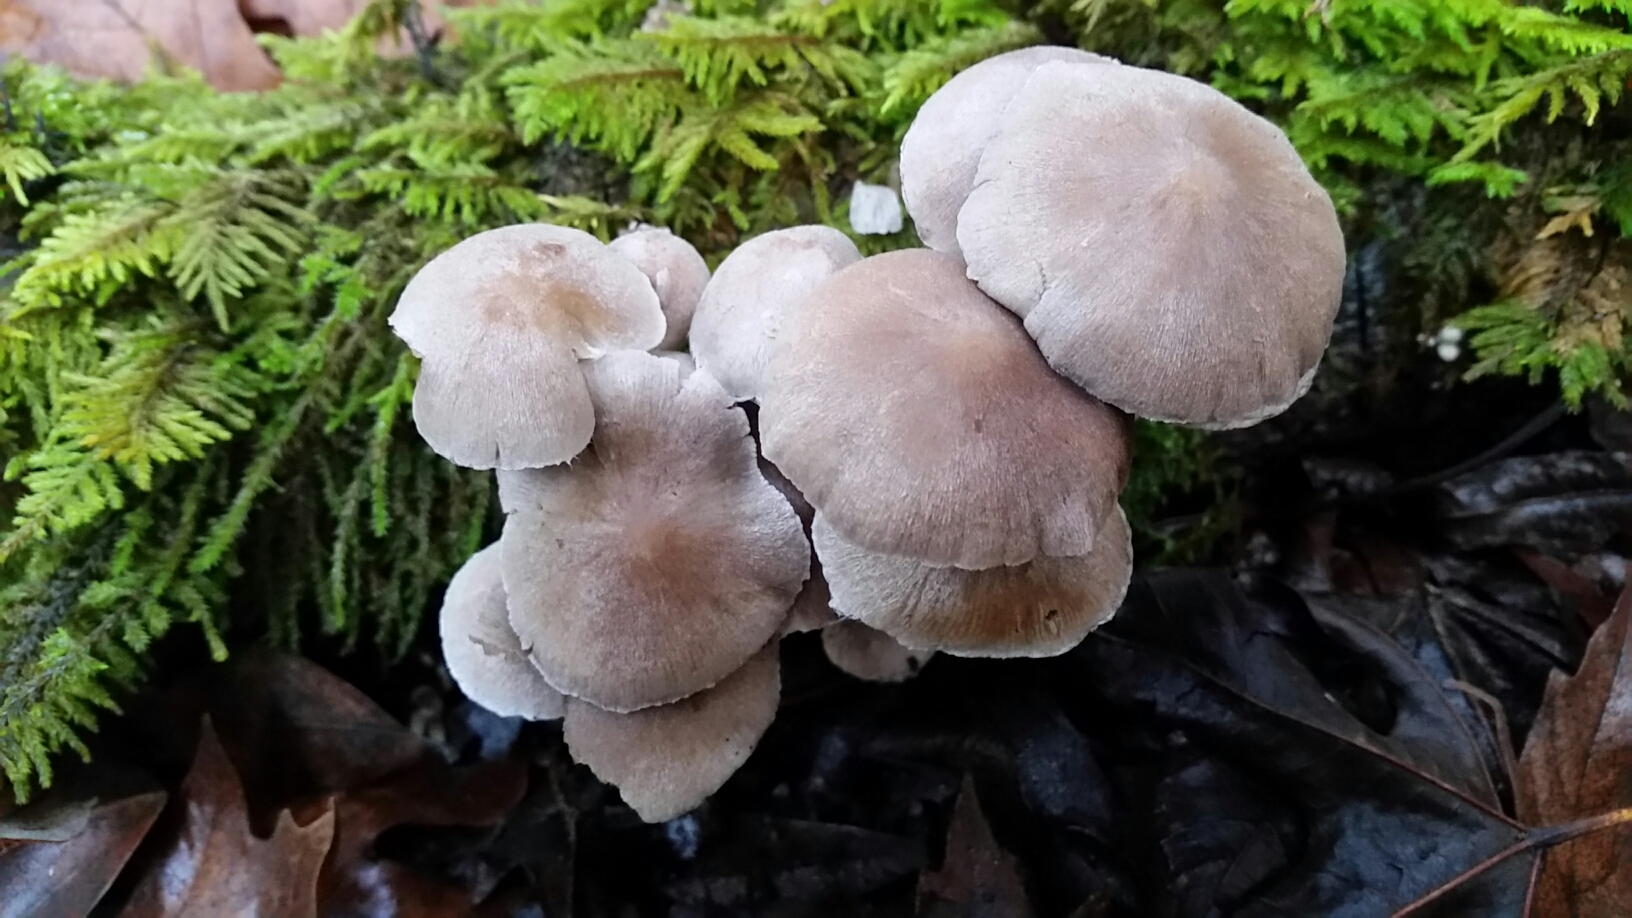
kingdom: Fungi
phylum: Basidiomycota
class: Agaricomycetes
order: Agaricales
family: Psathyrellaceae
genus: Coprinopsis
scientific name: Coprinopsis canoceps
